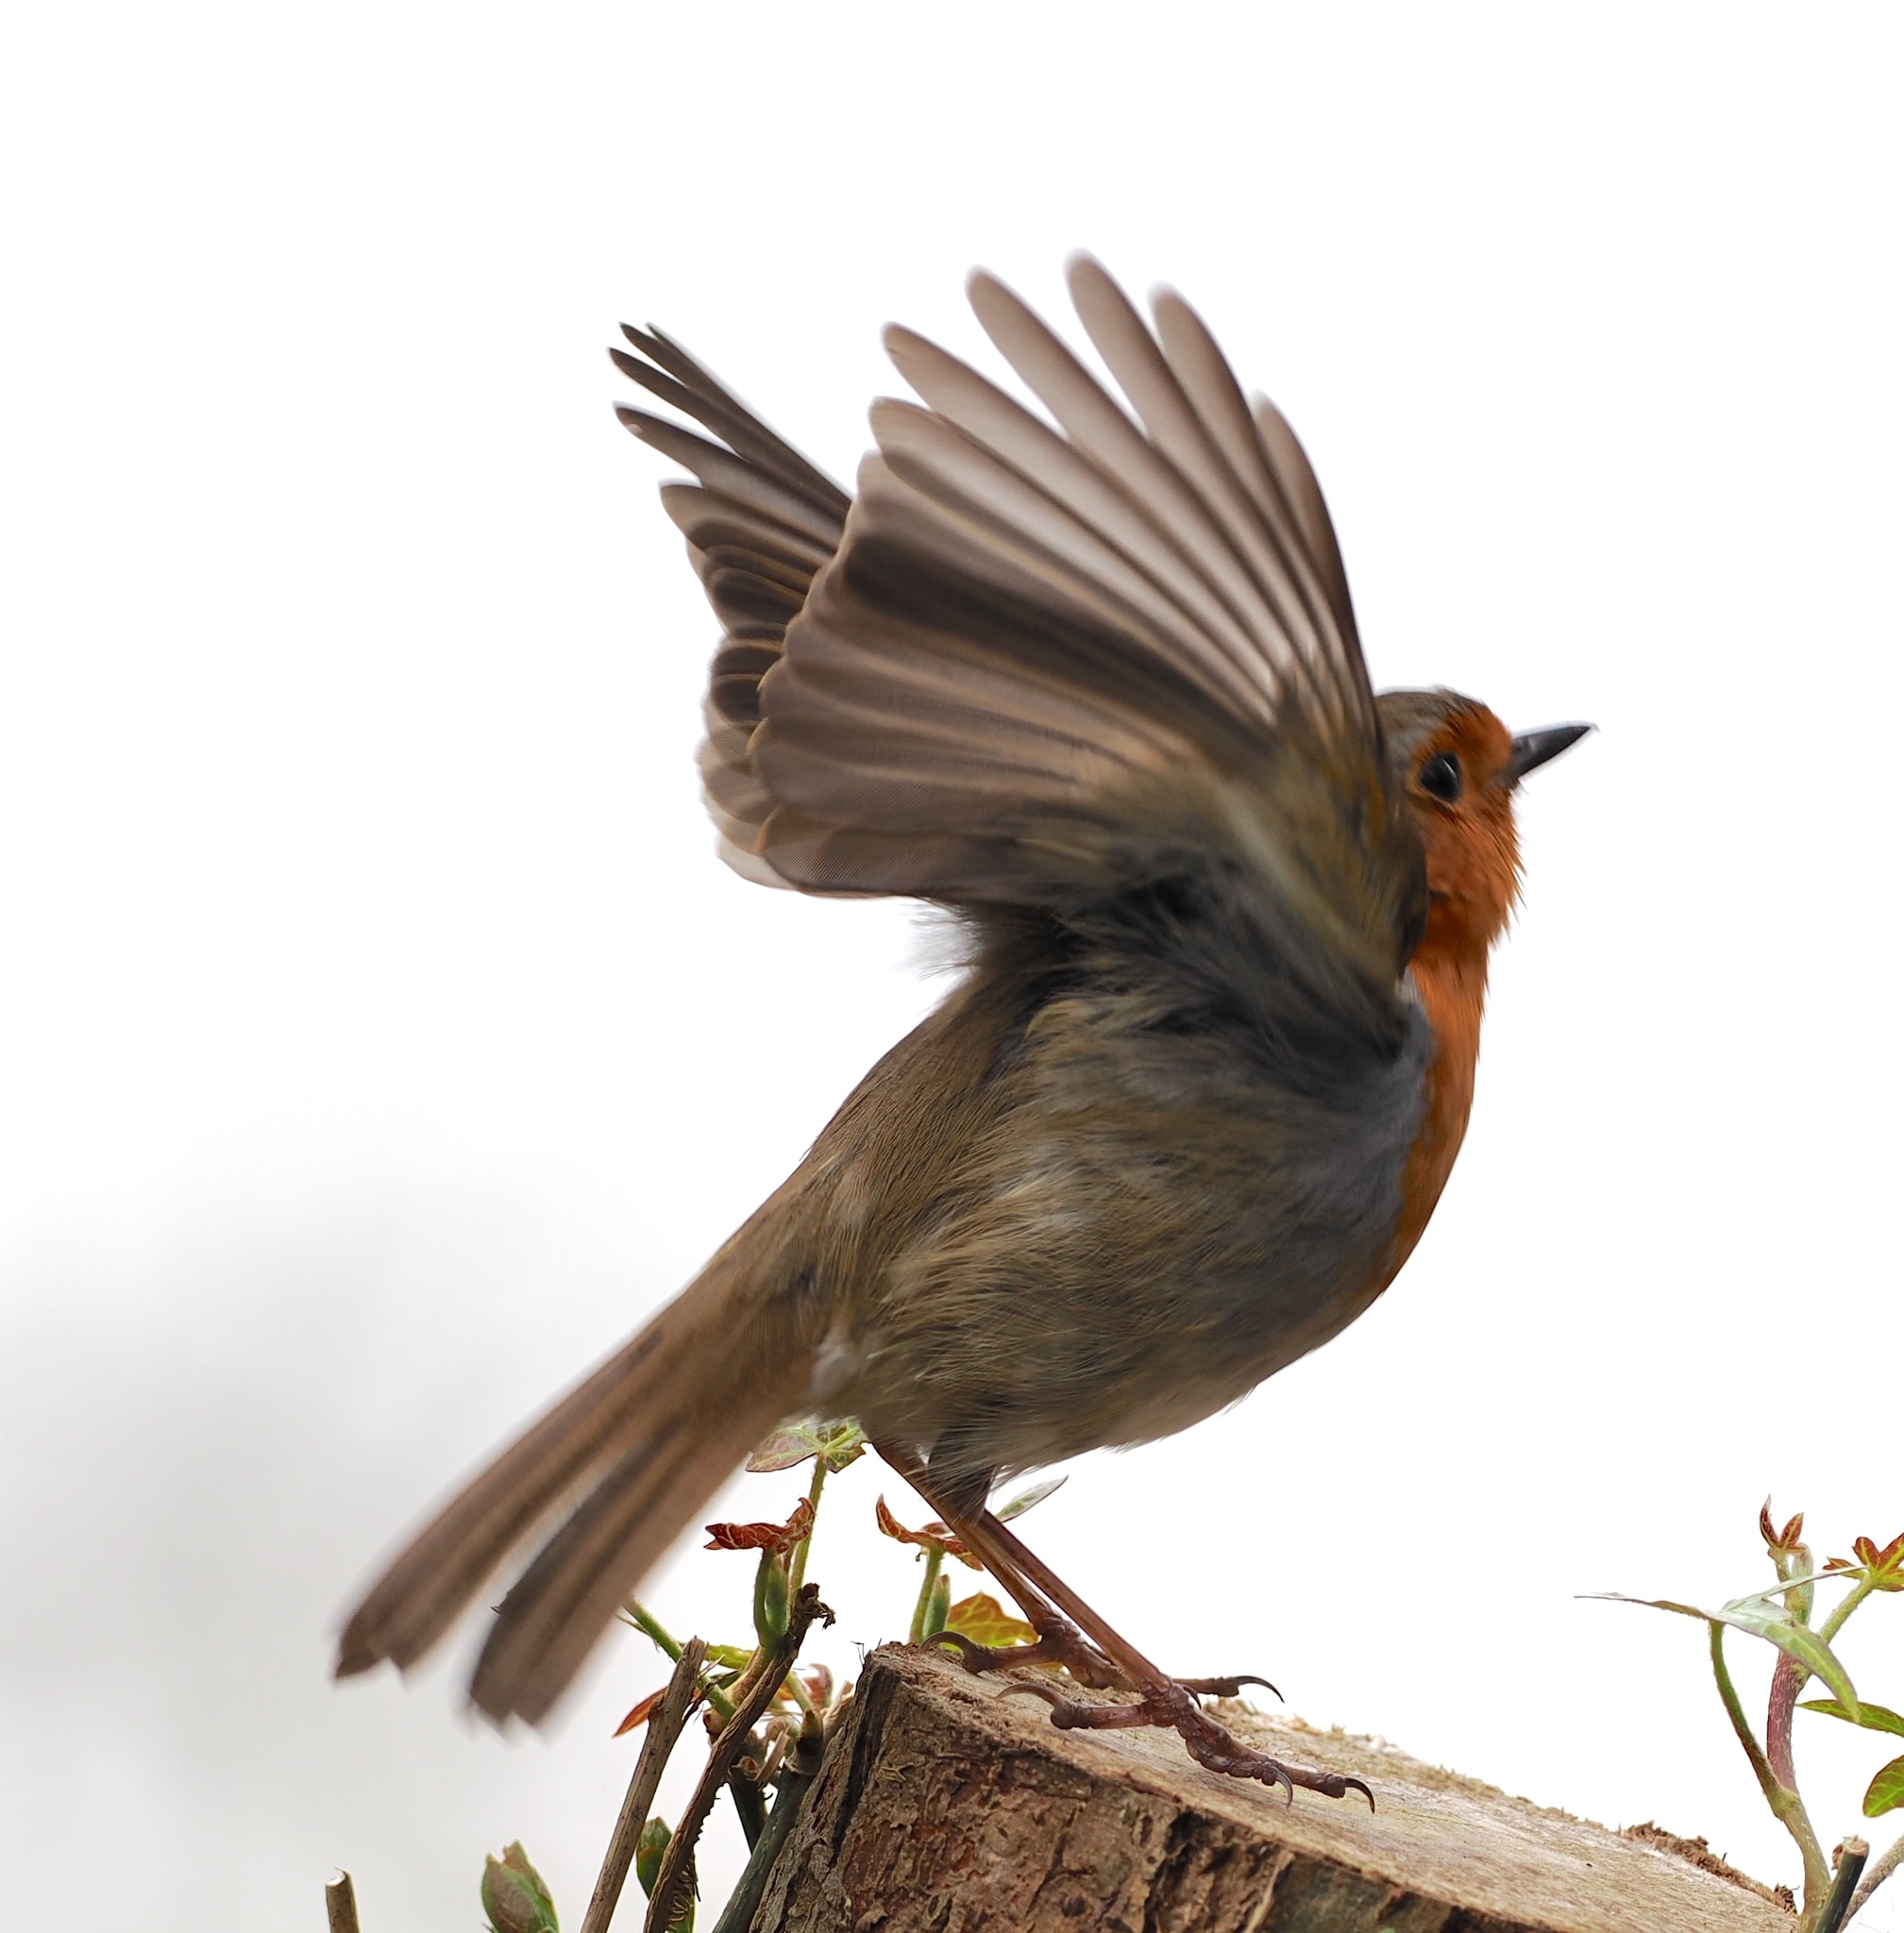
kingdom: Animalia
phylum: Chordata
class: Aves
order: Passeriformes
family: Muscicapidae
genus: Erithacus
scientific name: Erithacus rubecula
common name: European robin
